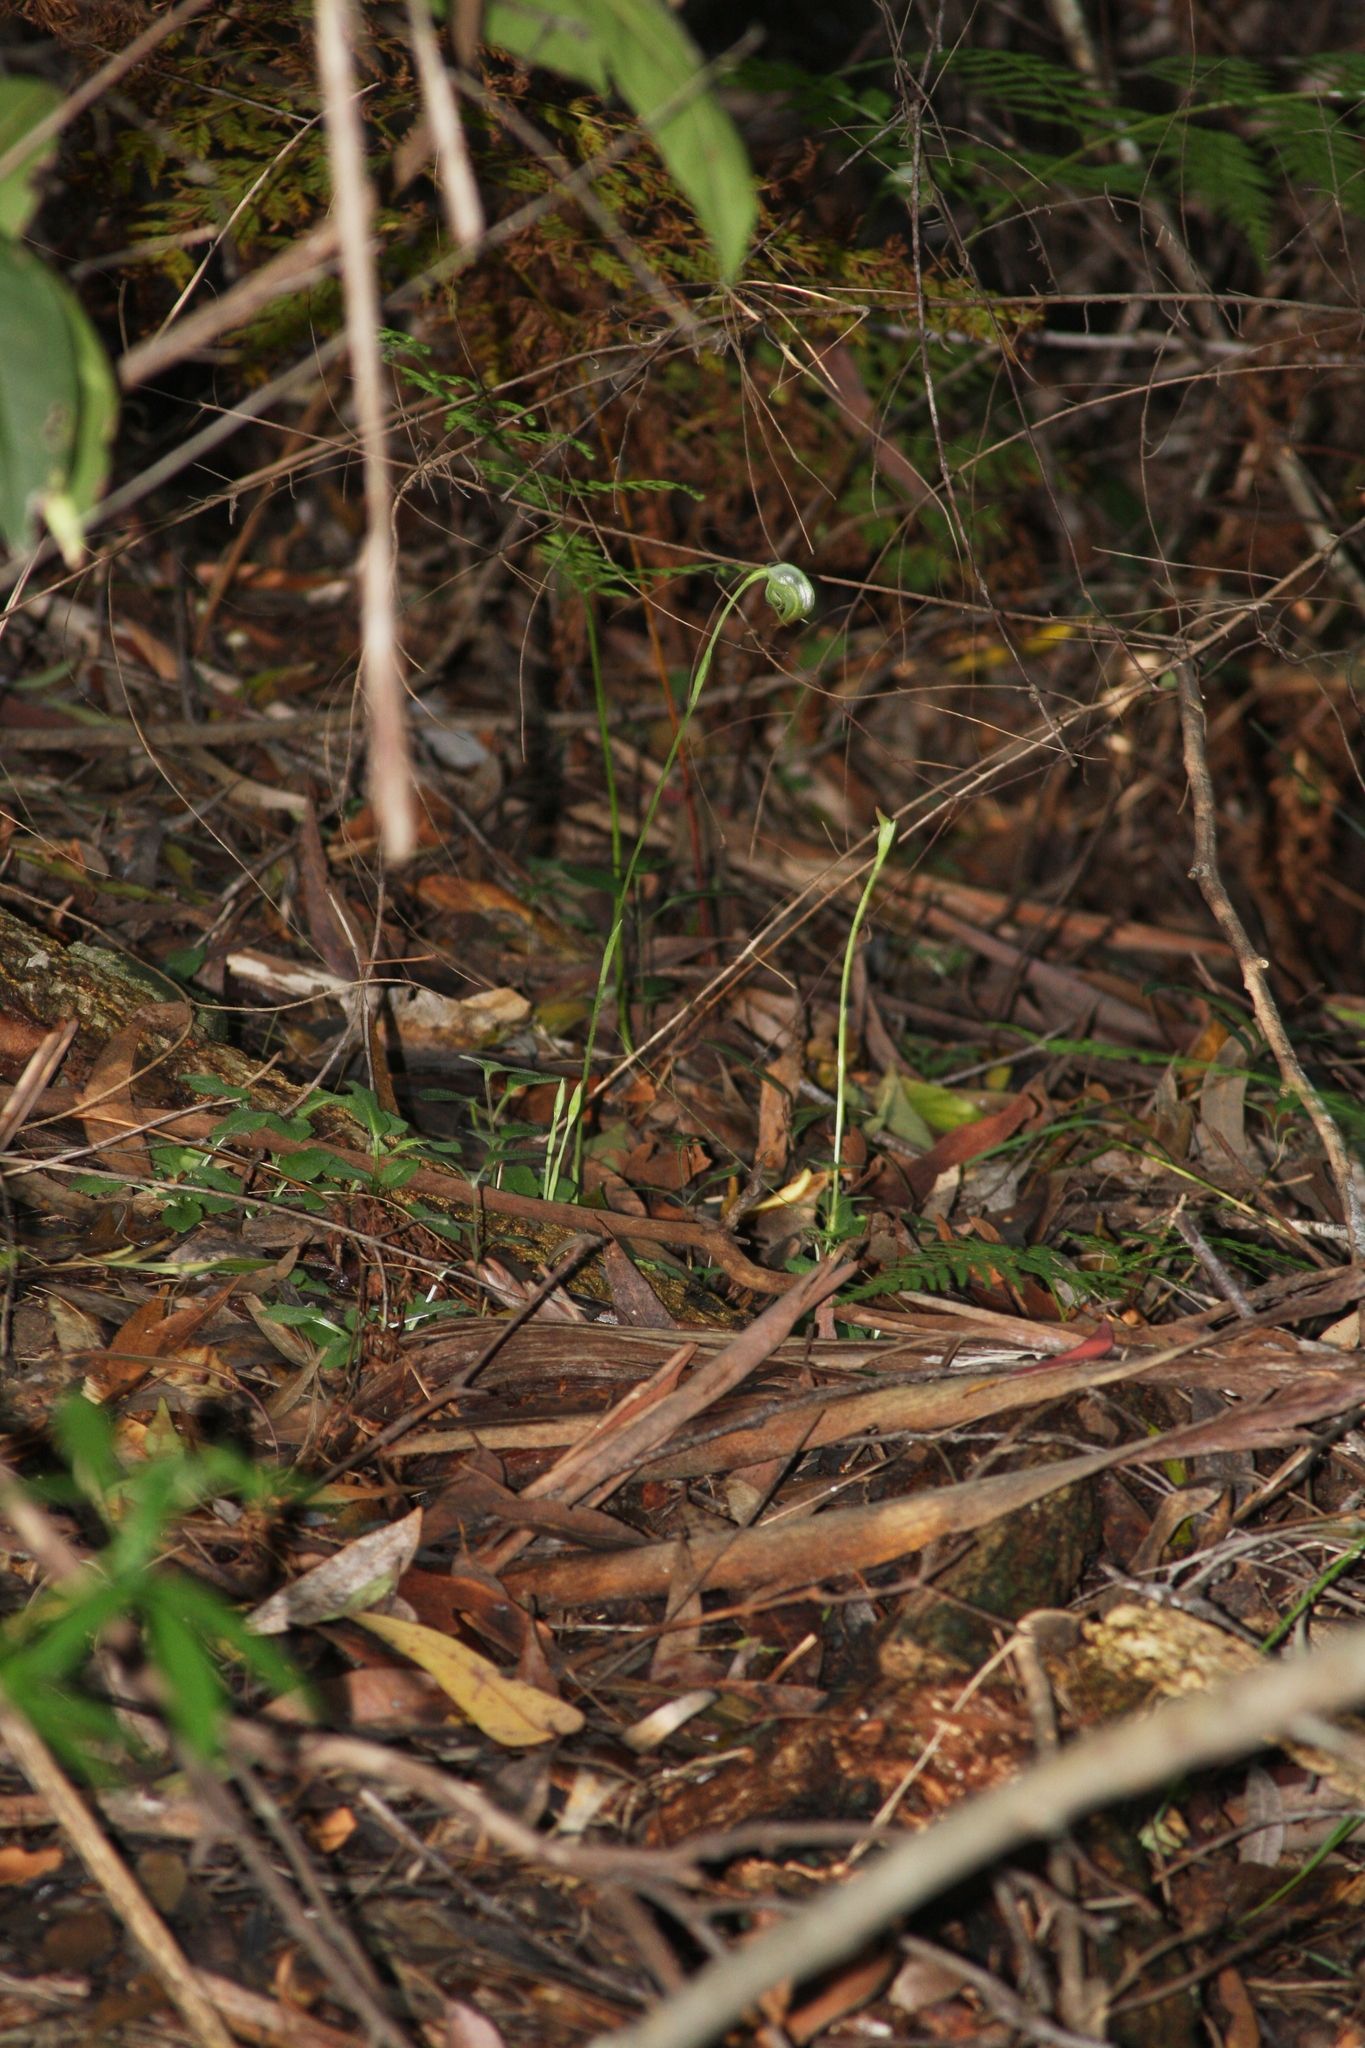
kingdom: Plantae
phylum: Tracheophyta
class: Liliopsida
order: Asparagales
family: Orchidaceae
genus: Pterostylis
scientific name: Pterostylis nutans
